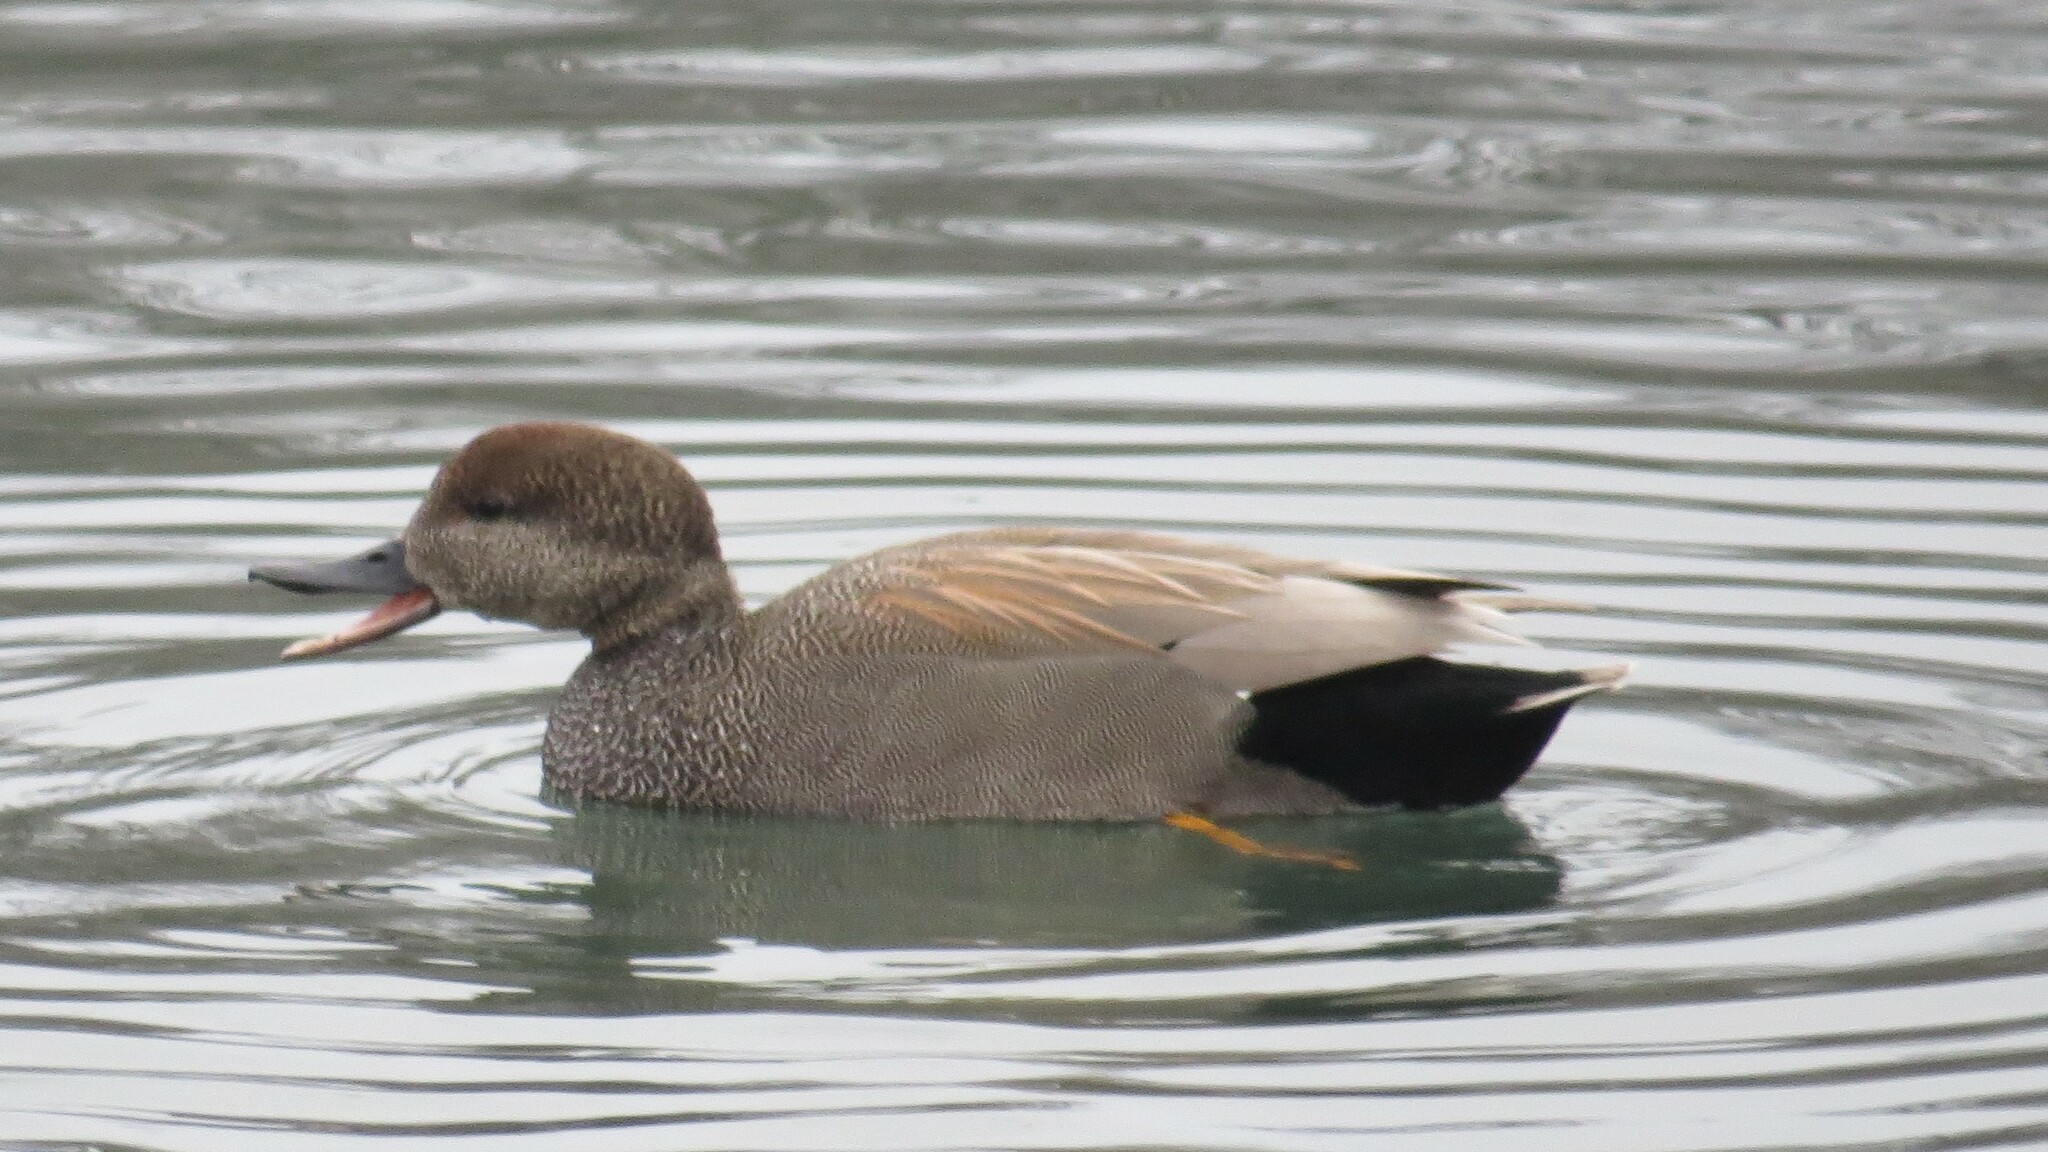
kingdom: Animalia
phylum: Chordata
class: Aves
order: Anseriformes
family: Anatidae
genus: Mareca
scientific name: Mareca strepera
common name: Gadwall
